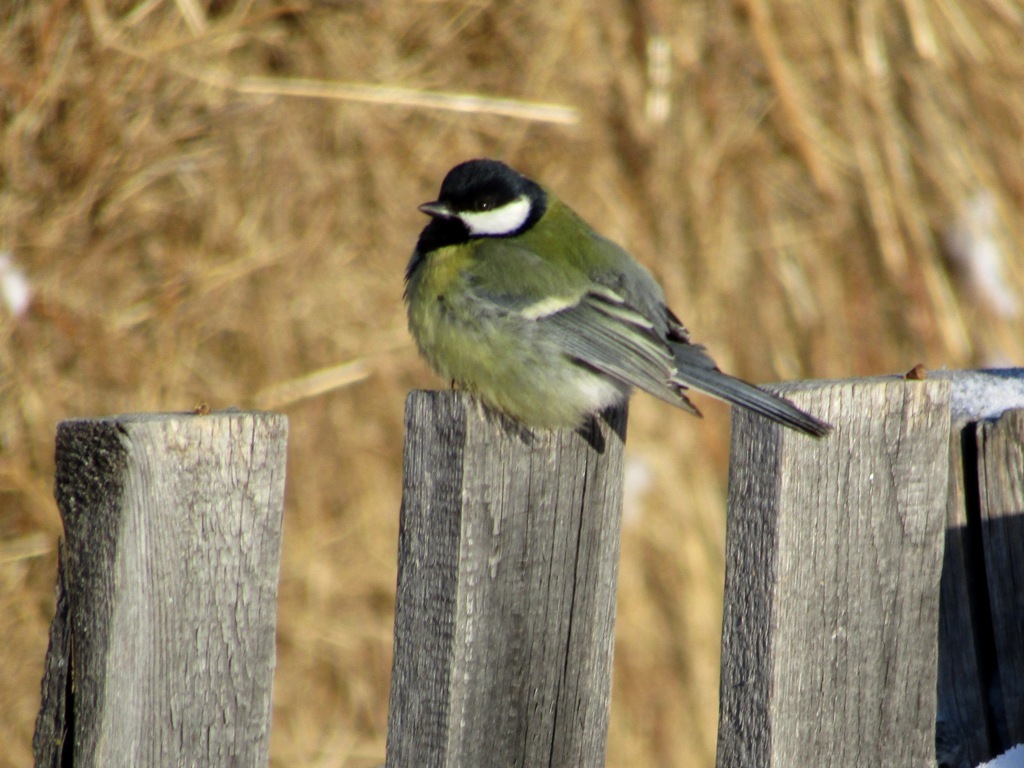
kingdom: Animalia
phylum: Chordata
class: Aves
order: Passeriformes
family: Paridae
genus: Parus
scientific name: Parus major
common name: Great tit
